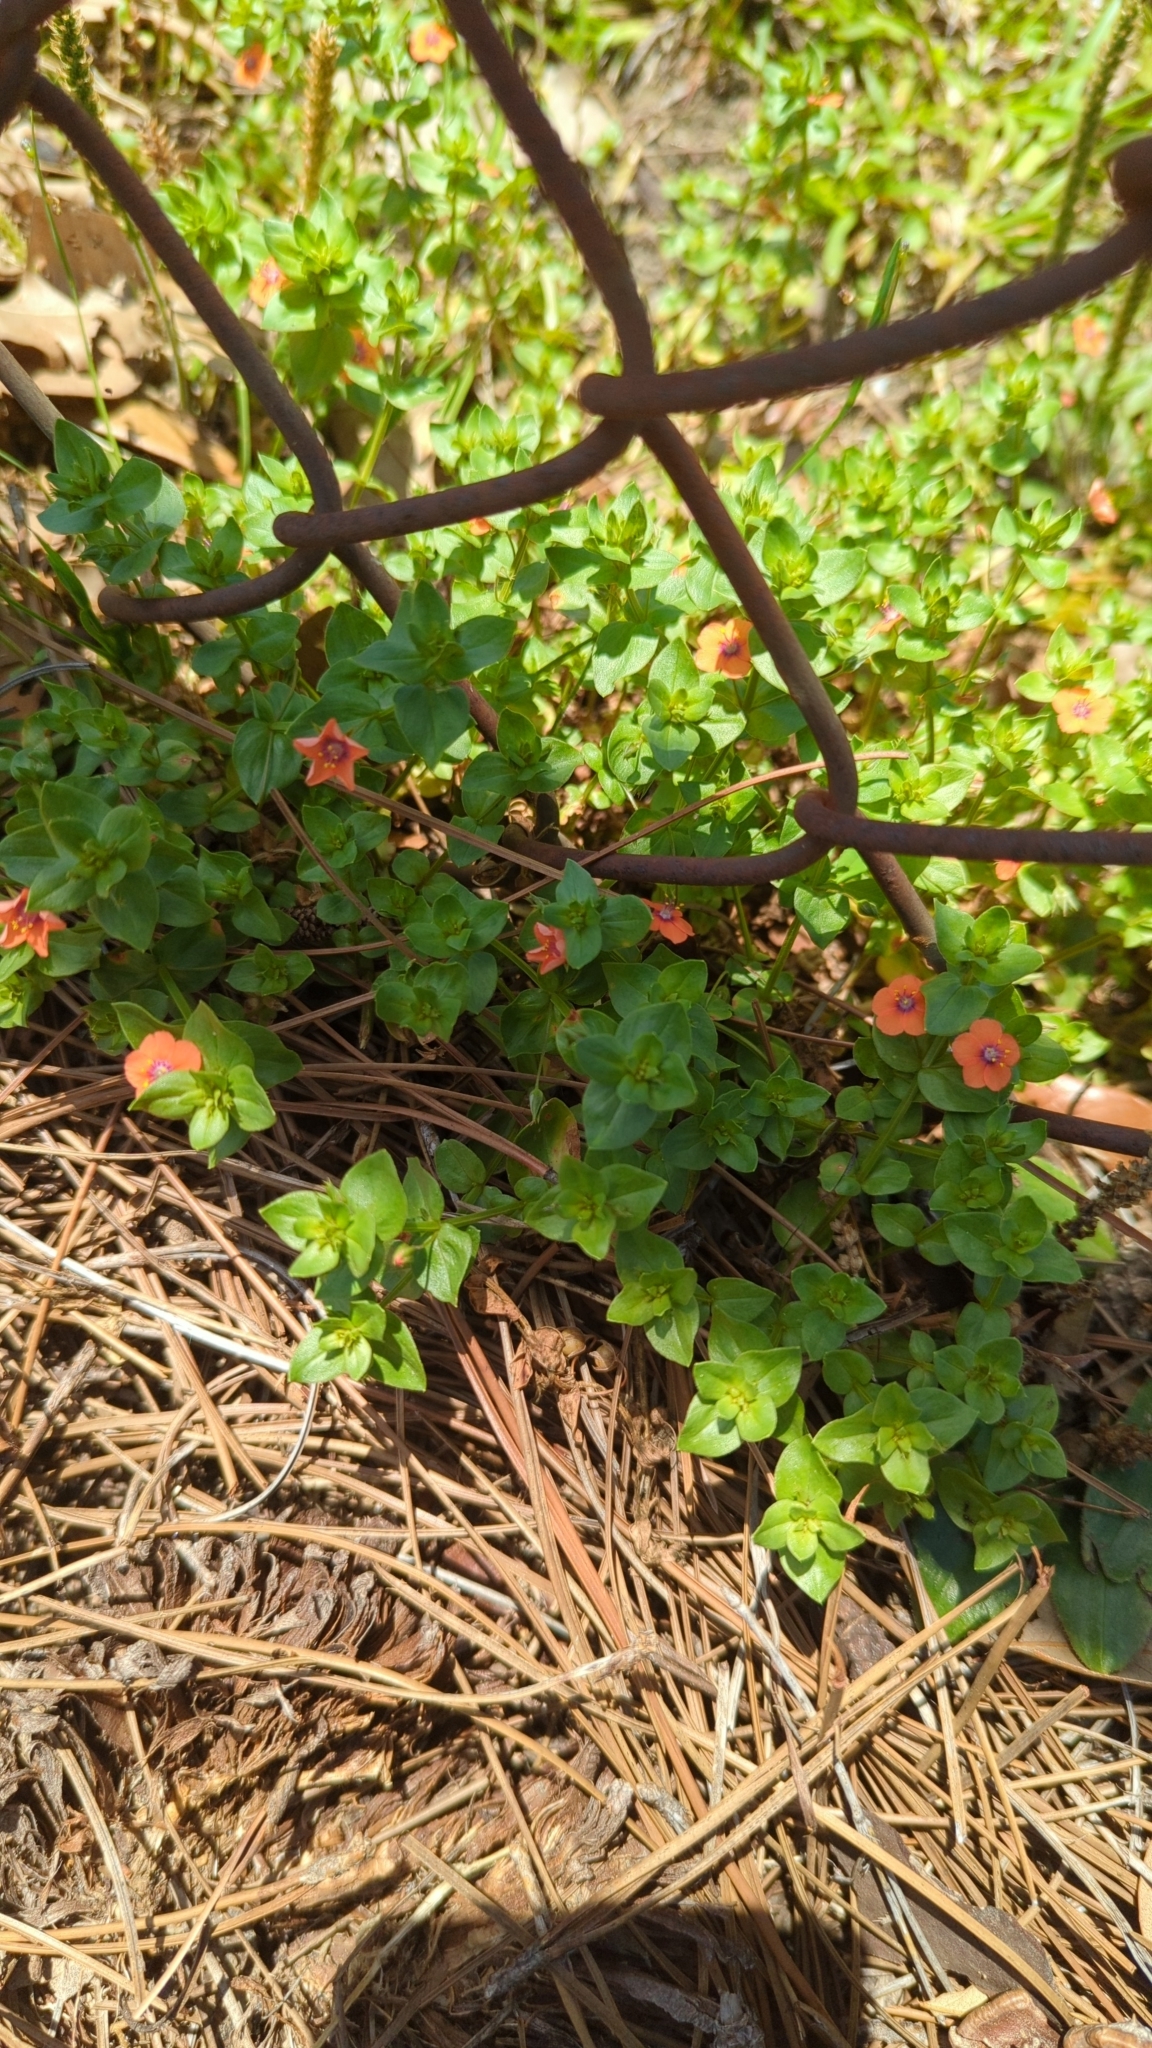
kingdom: Plantae
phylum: Tracheophyta
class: Magnoliopsida
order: Ericales
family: Primulaceae
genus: Lysimachia
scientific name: Lysimachia arvensis
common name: Scarlet pimpernel
